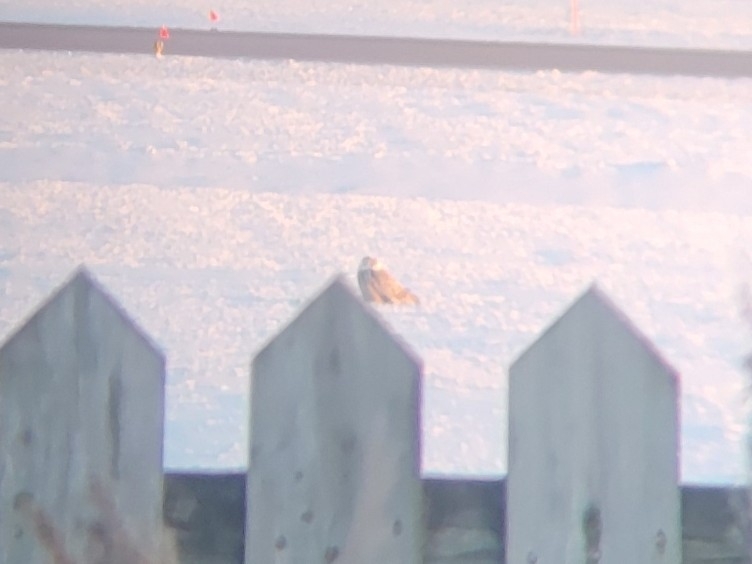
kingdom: Animalia
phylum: Chordata
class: Aves
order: Strigiformes
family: Strigidae
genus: Bubo
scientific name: Bubo scandiacus
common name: Snowy owl
